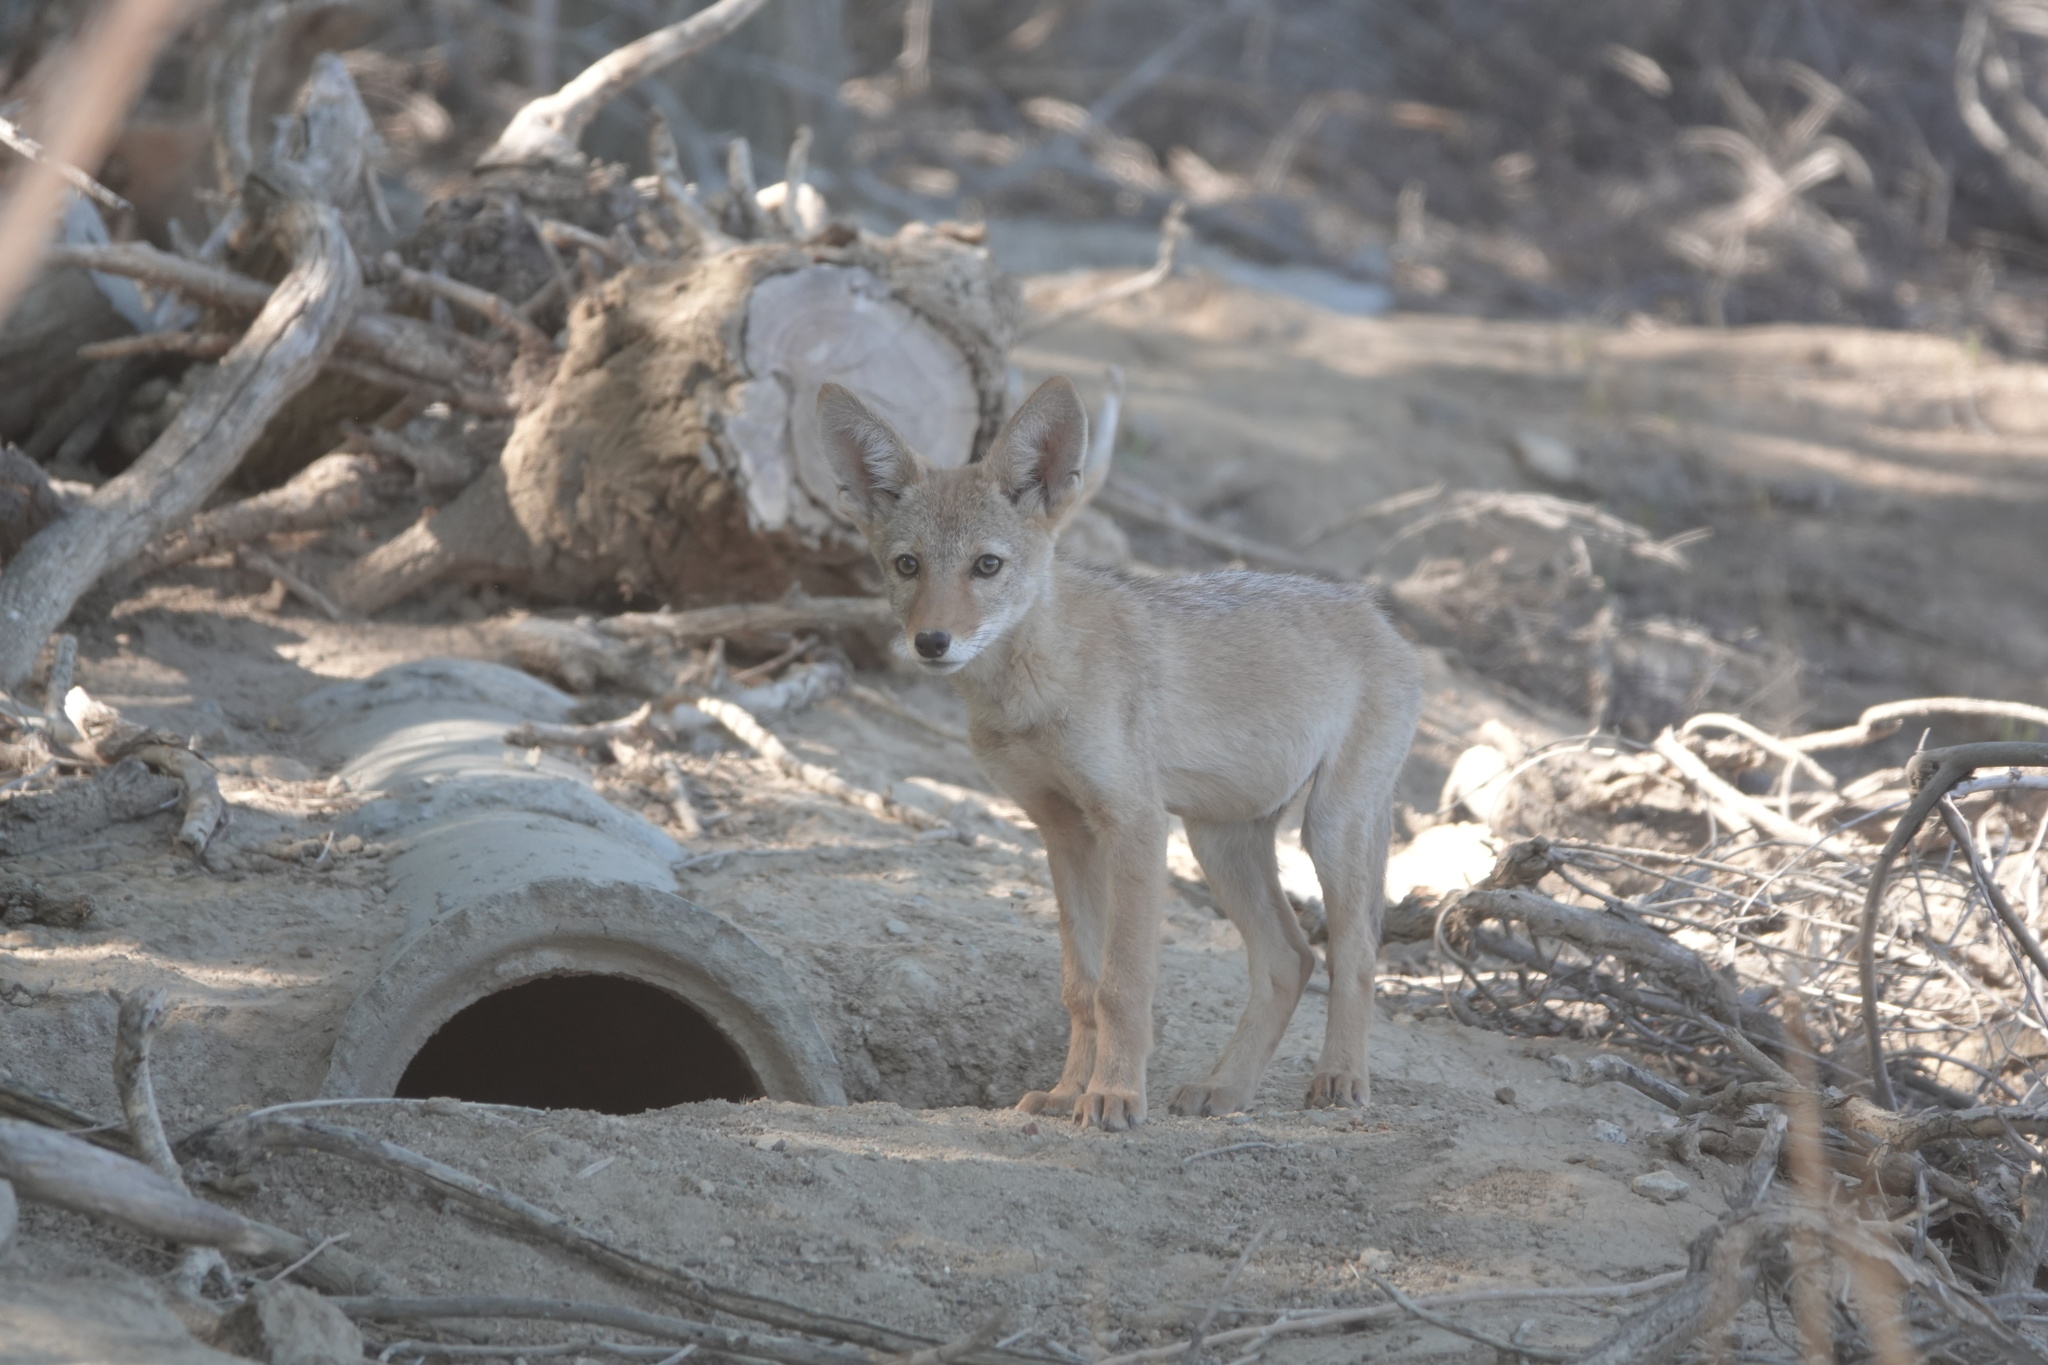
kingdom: Animalia
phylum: Chordata
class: Mammalia
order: Carnivora
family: Canidae
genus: Canis
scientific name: Canis latrans
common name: Coyote
